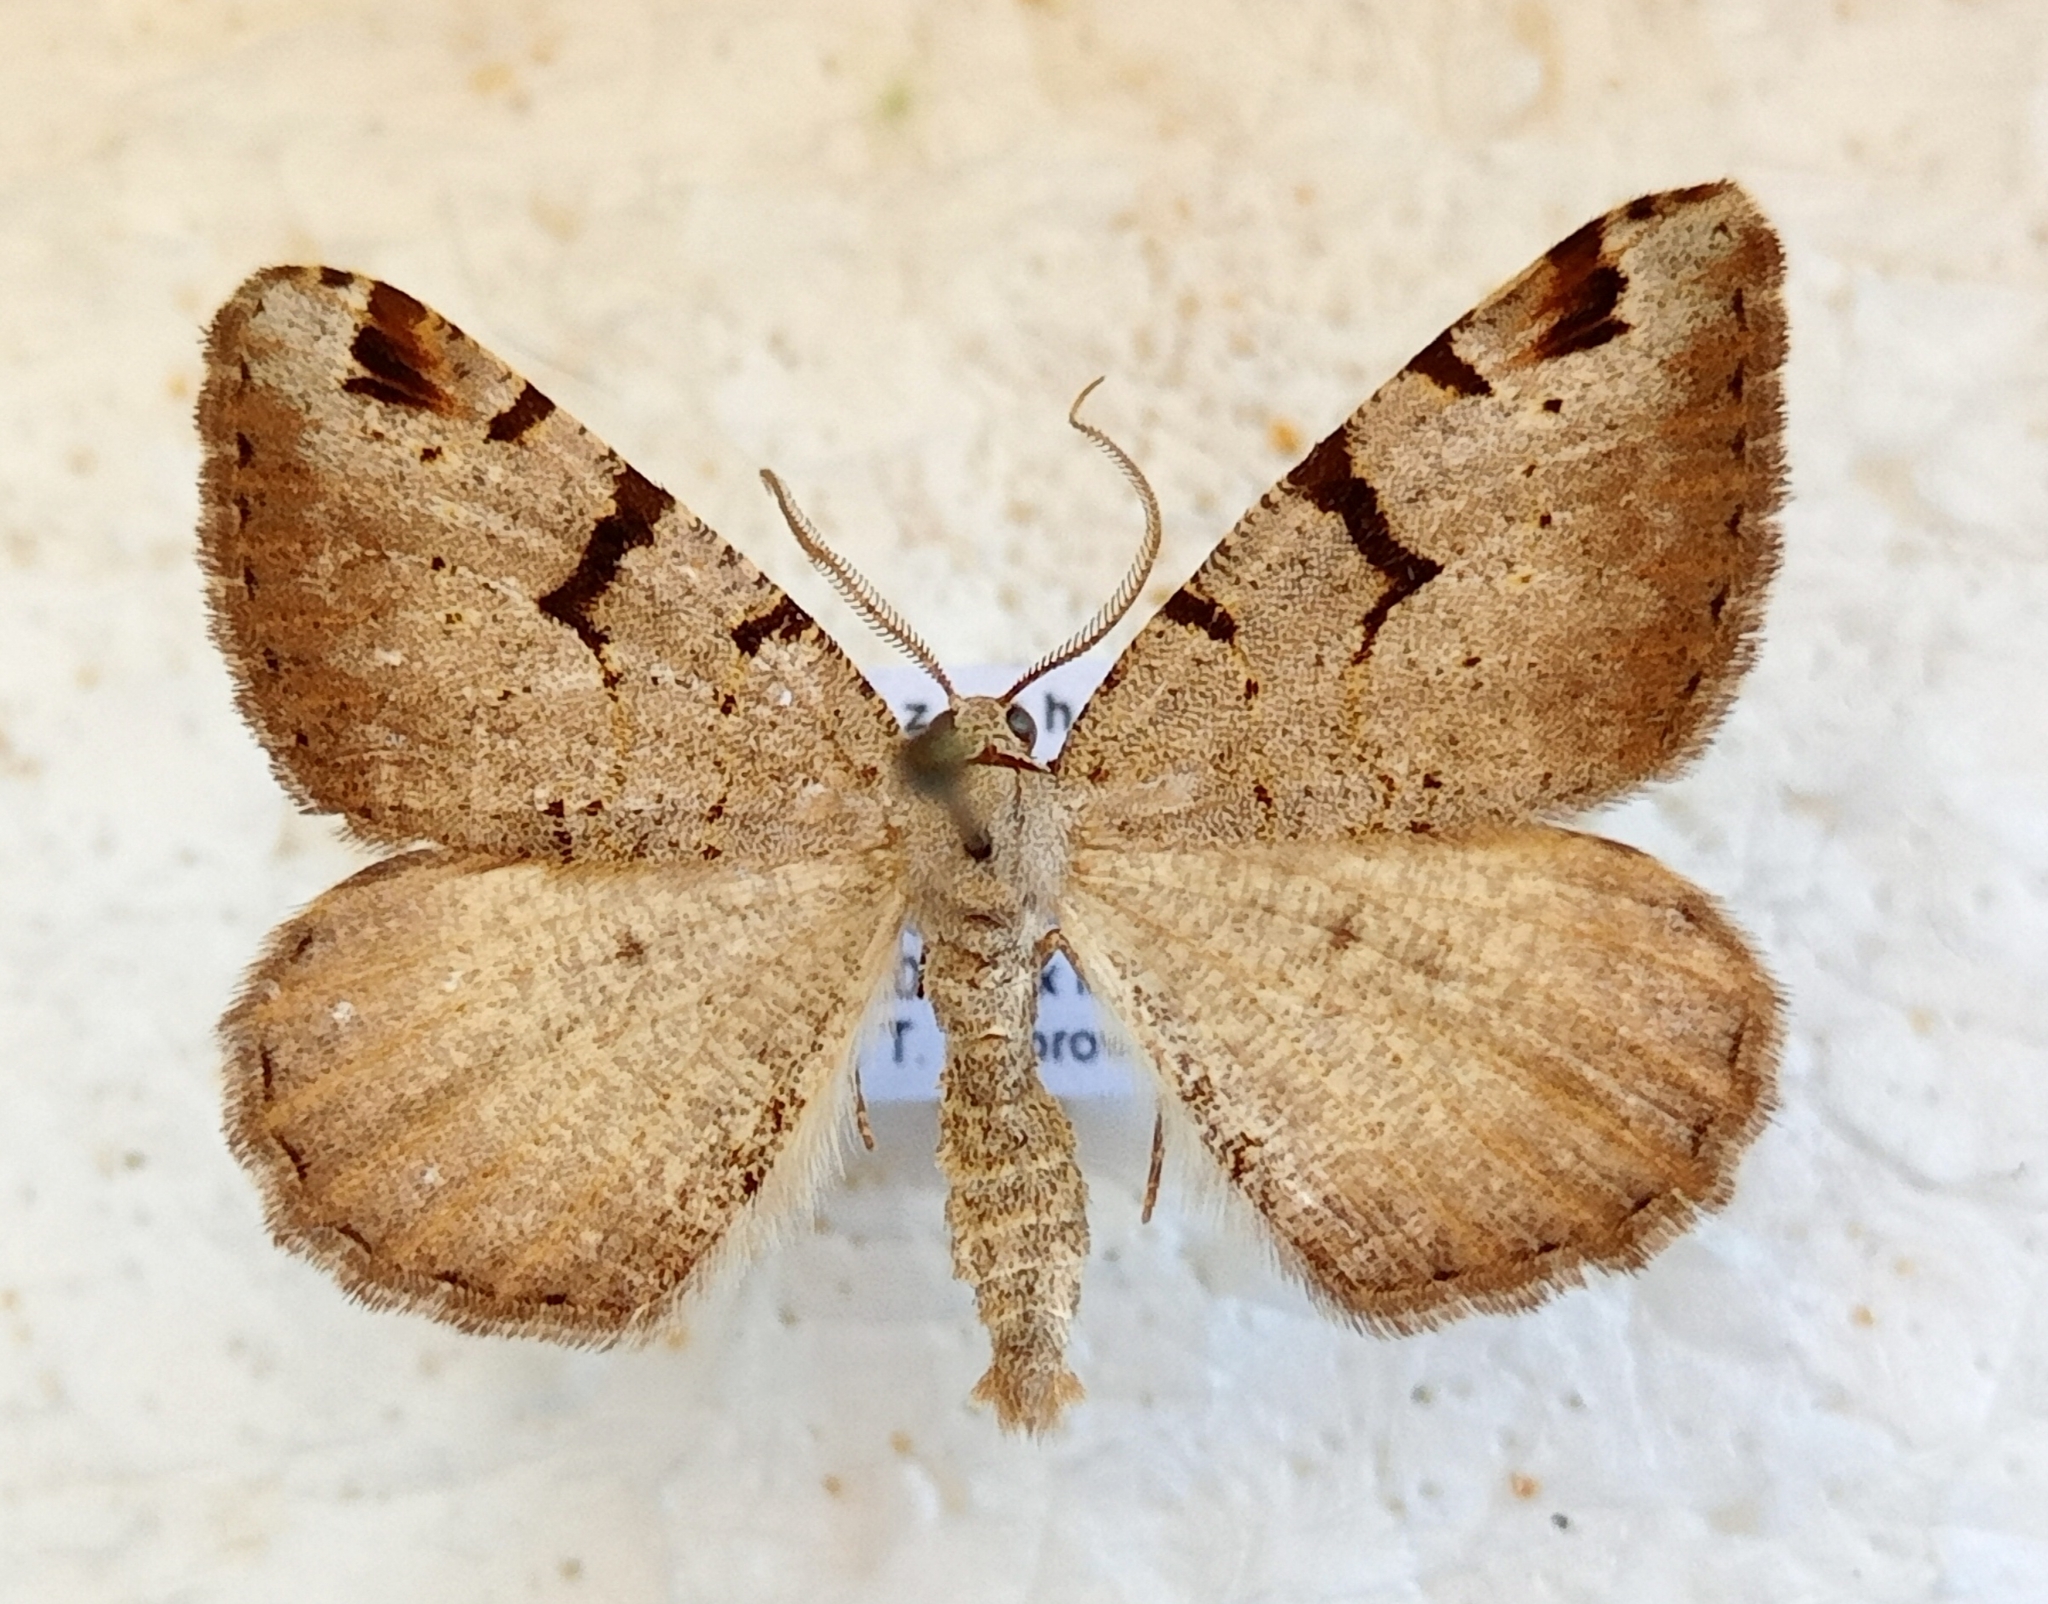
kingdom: Animalia
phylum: Arthropoda
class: Insecta
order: Lepidoptera
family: Geometridae
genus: Macaria
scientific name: Macaria wauaria
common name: V-moth
